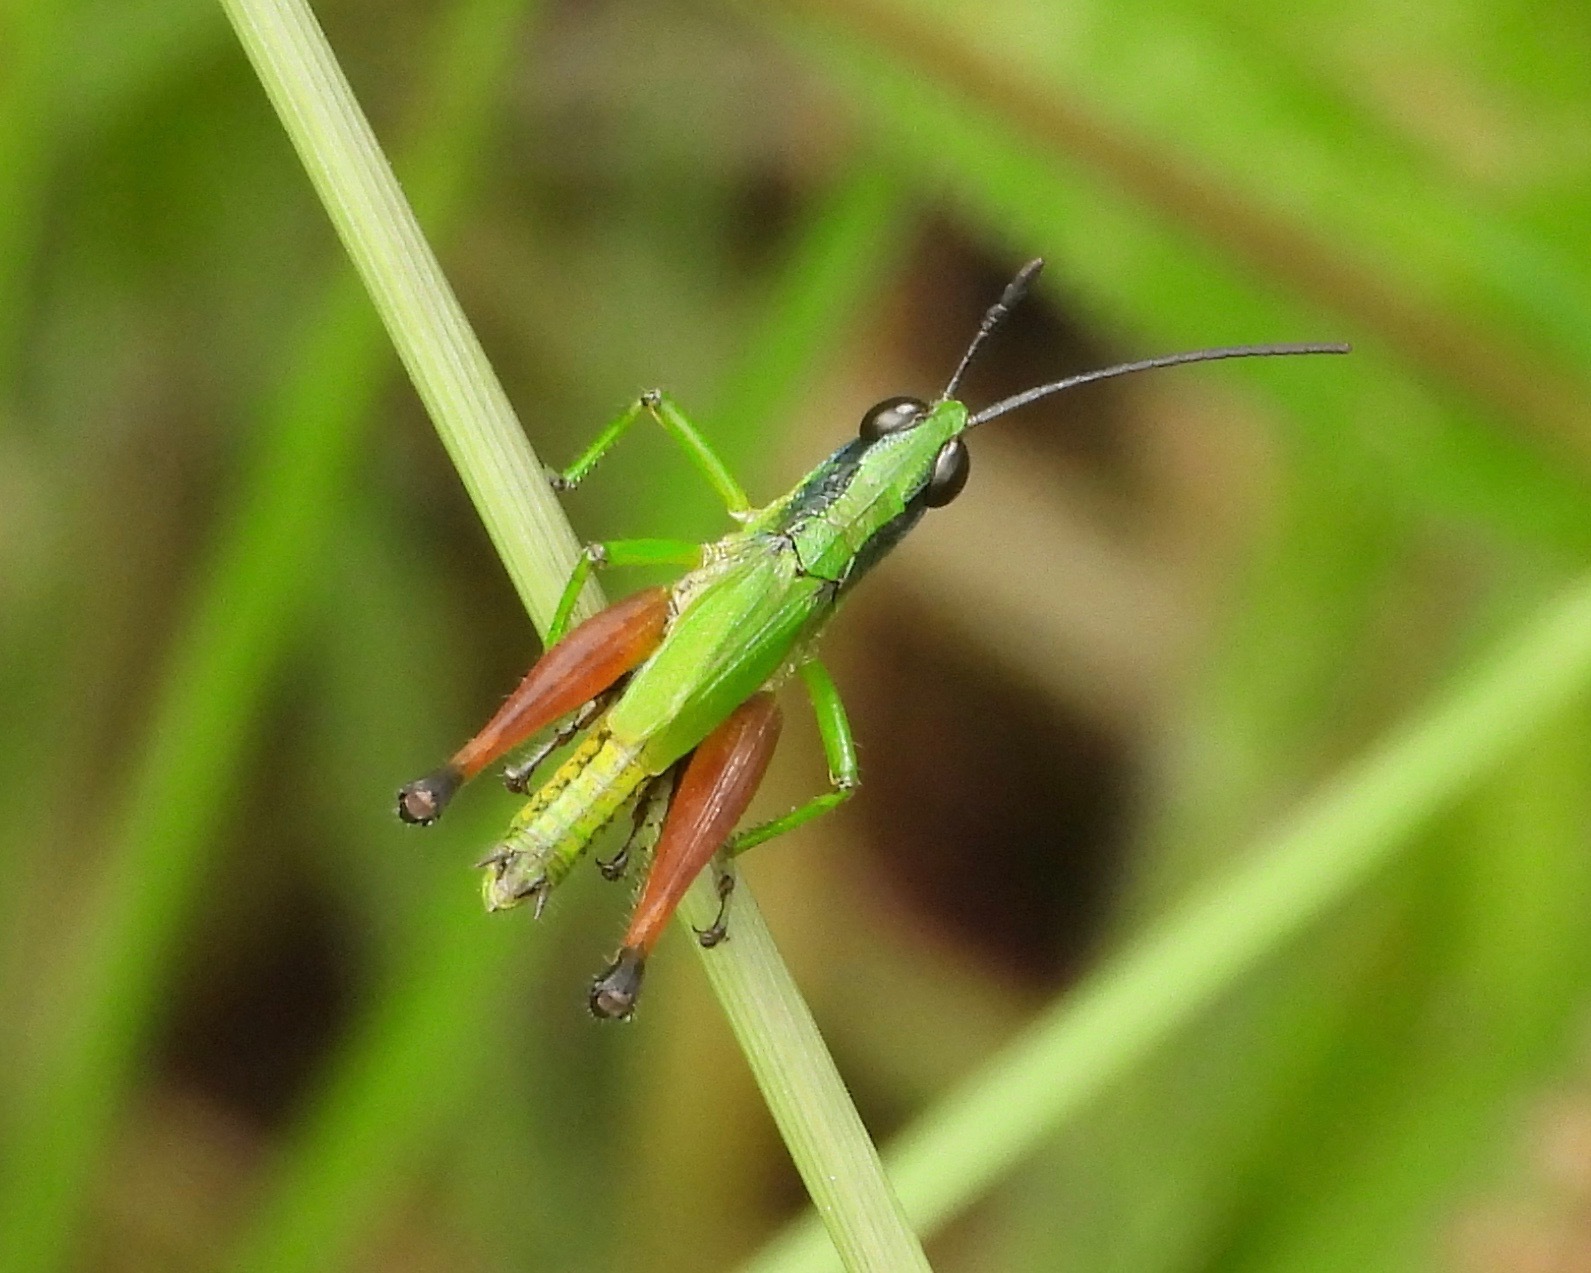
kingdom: Animalia
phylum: Arthropoda
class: Insecta
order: Orthoptera
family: Acrididae
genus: Phaneroturis
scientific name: Phaneroturis cupido
